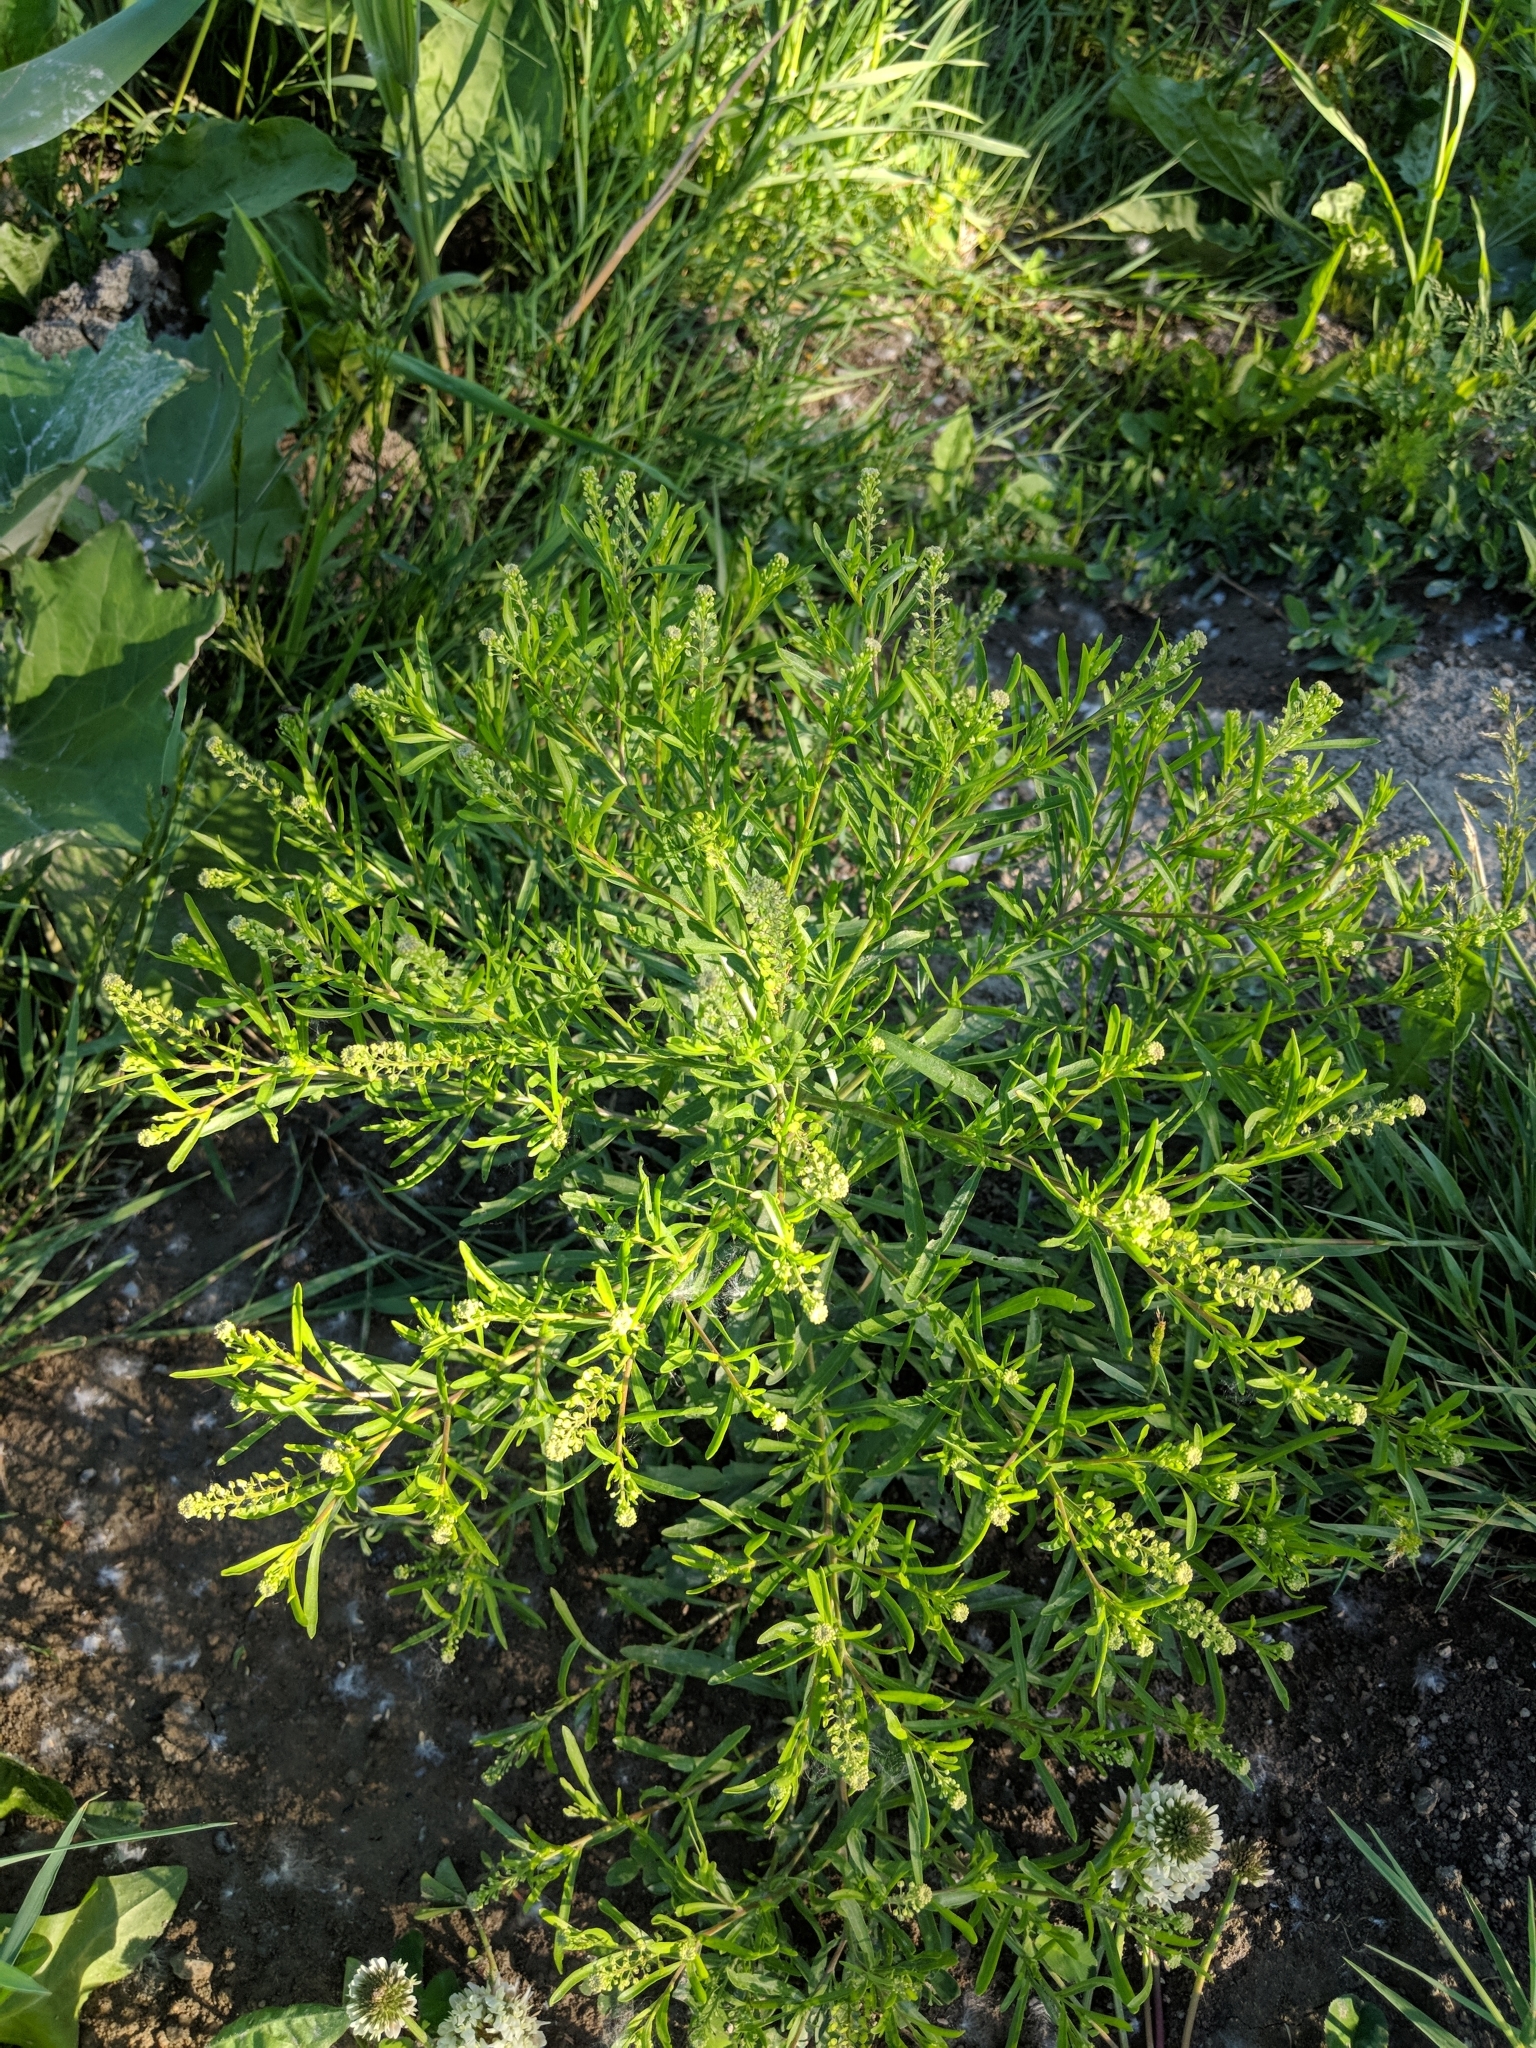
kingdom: Plantae
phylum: Tracheophyta
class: Magnoliopsida
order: Brassicales
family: Brassicaceae
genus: Lepidium
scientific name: Lepidium virginicum
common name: Least pepperwort
